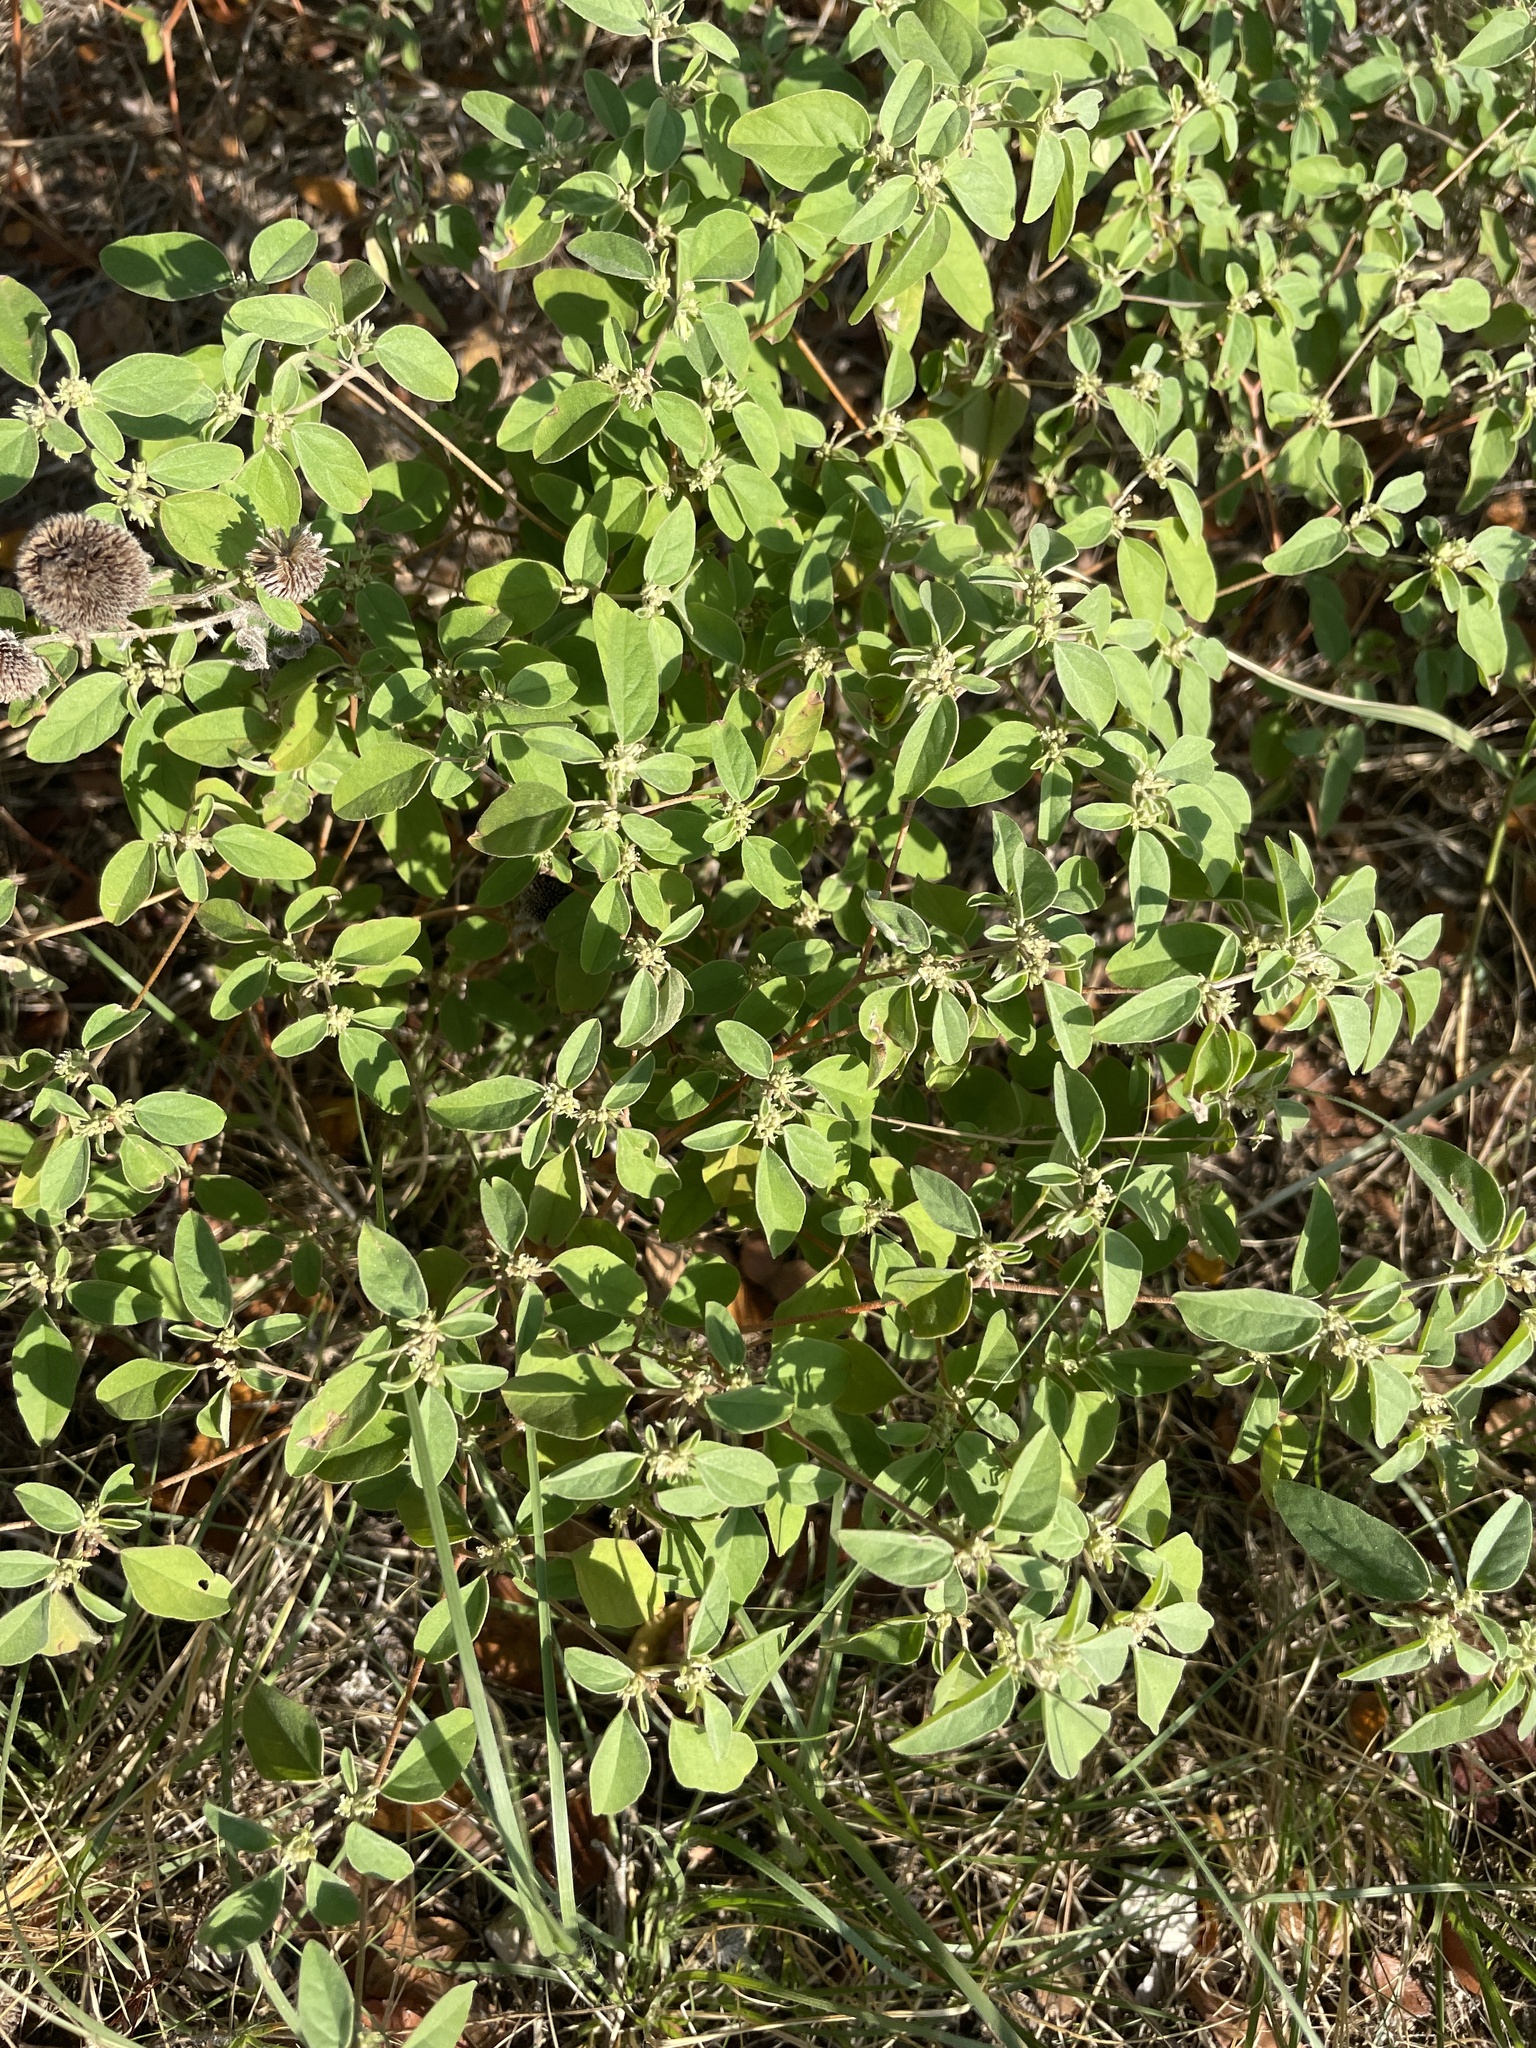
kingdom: Plantae
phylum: Tracheophyta
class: Magnoliopsida
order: Malpighiales
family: Euphorbiaceae
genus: Croton
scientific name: Croton monanthogynus
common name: One-seed croton
